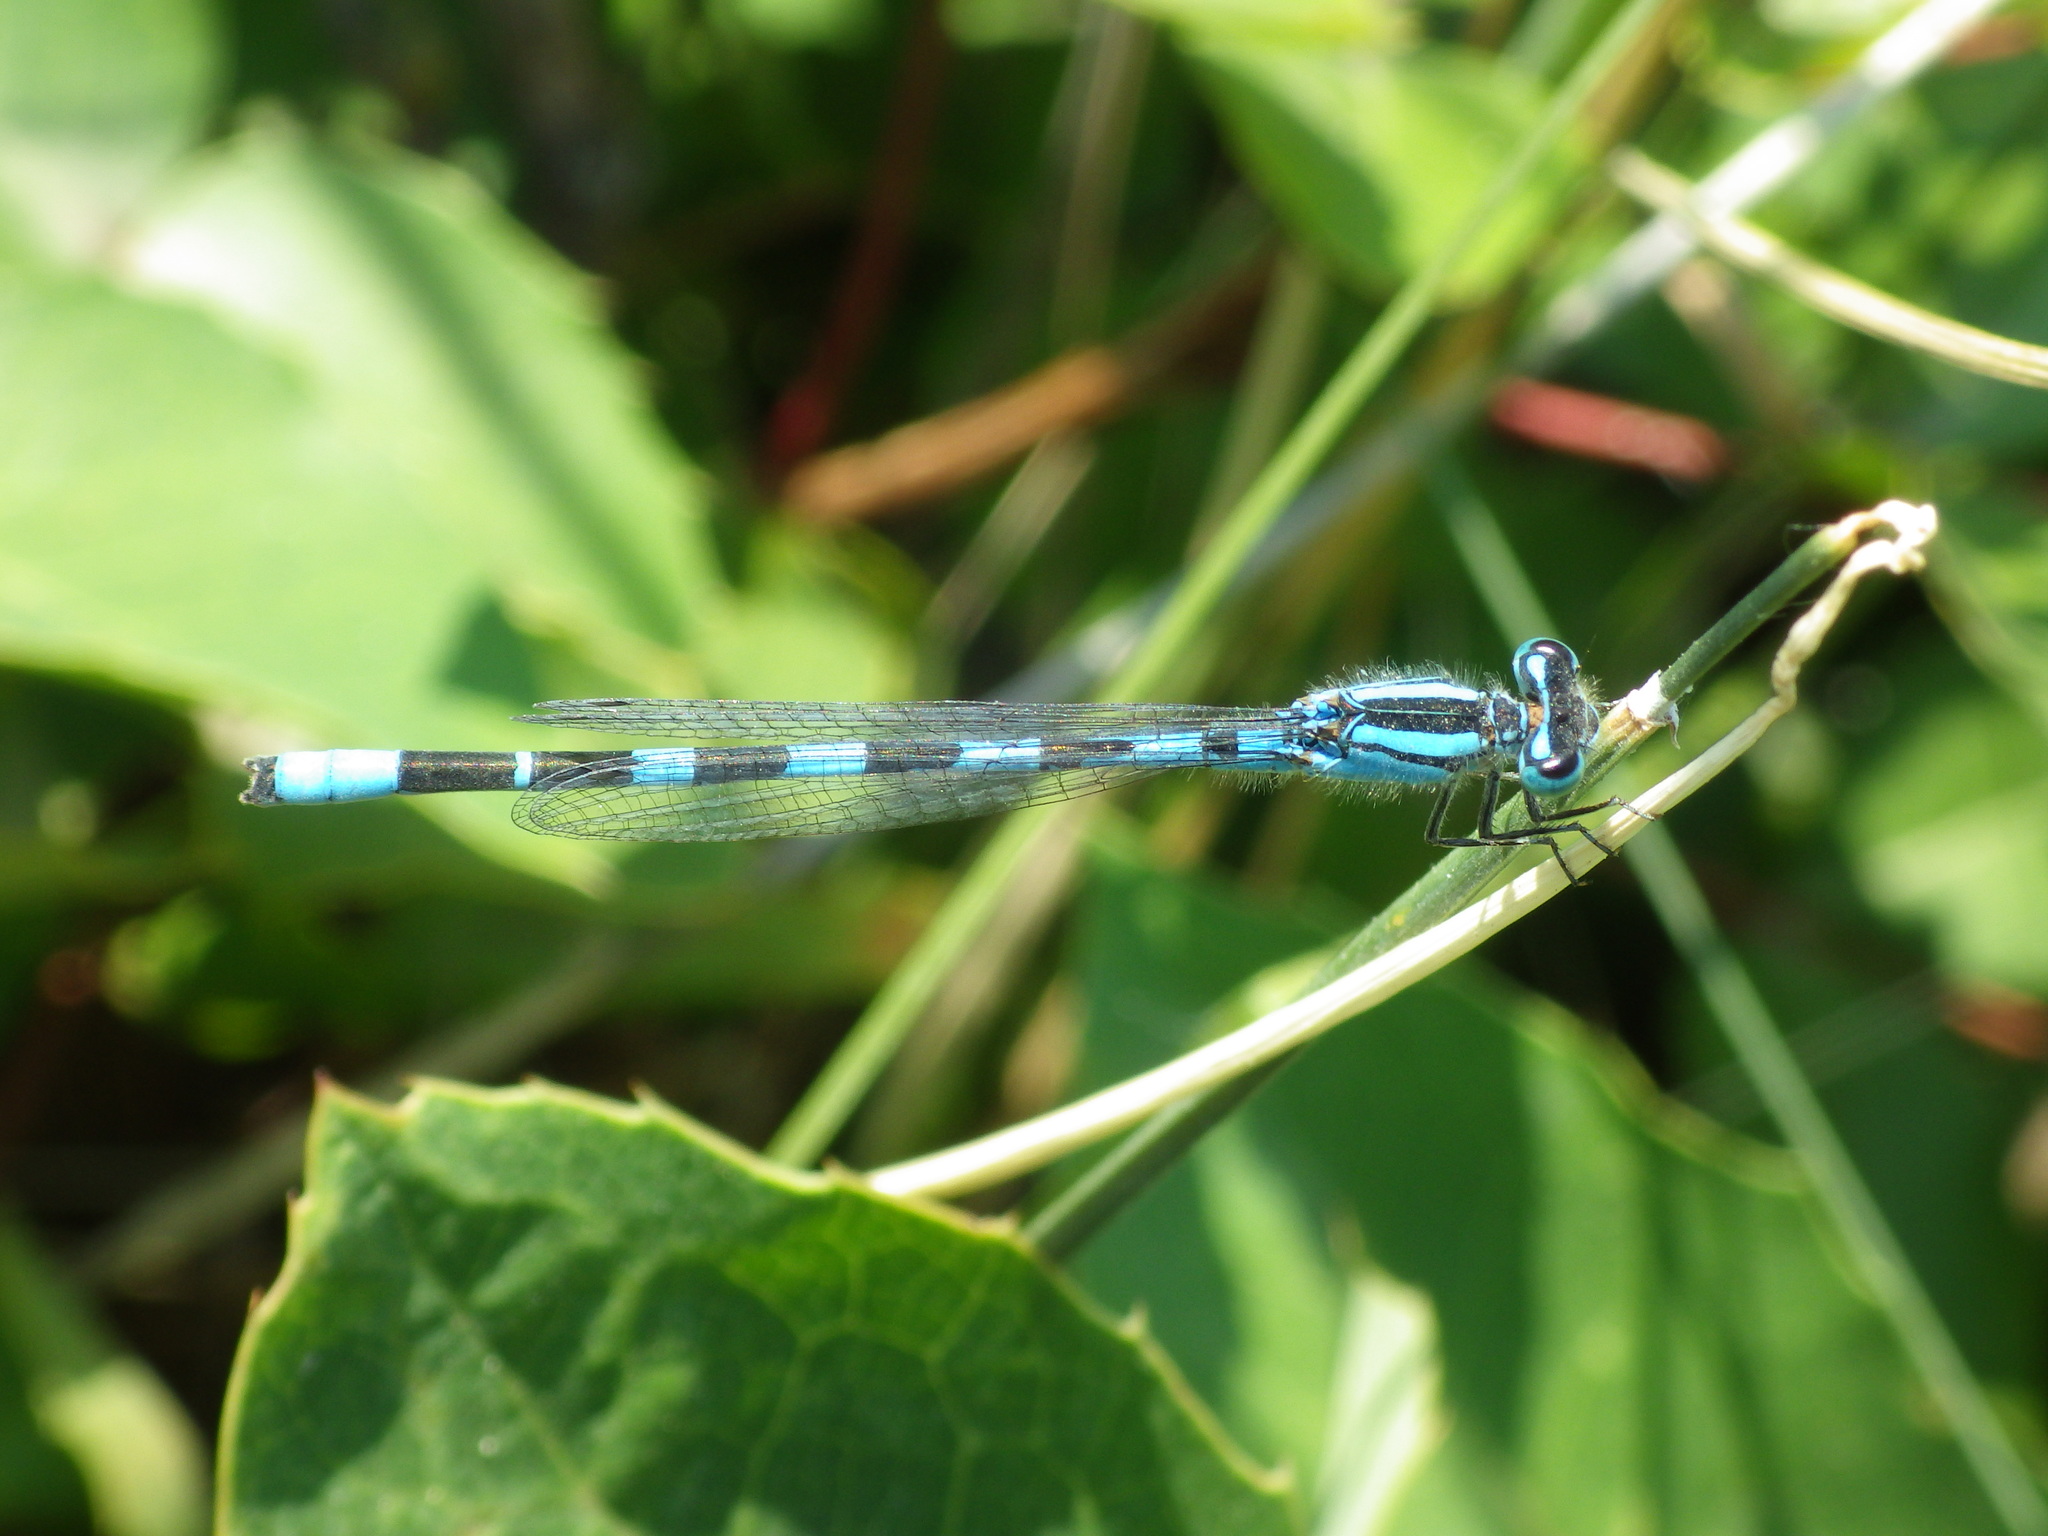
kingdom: Animalia
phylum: Arthropoda
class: Insecta
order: Odonata
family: Coenagrionidae
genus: Enallagma
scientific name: Enallagma carunculatum
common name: Tule bluet
